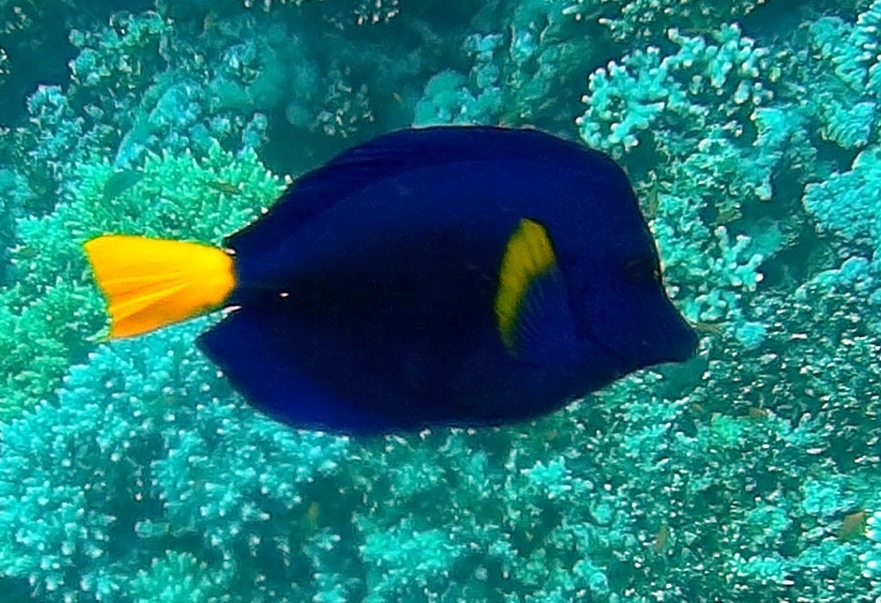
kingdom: Animalia
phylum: Chordata
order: Perciformes
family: Acanthuridae
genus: Zebrasoma
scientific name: Zebrasoma xanthurum
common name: Purple tang
